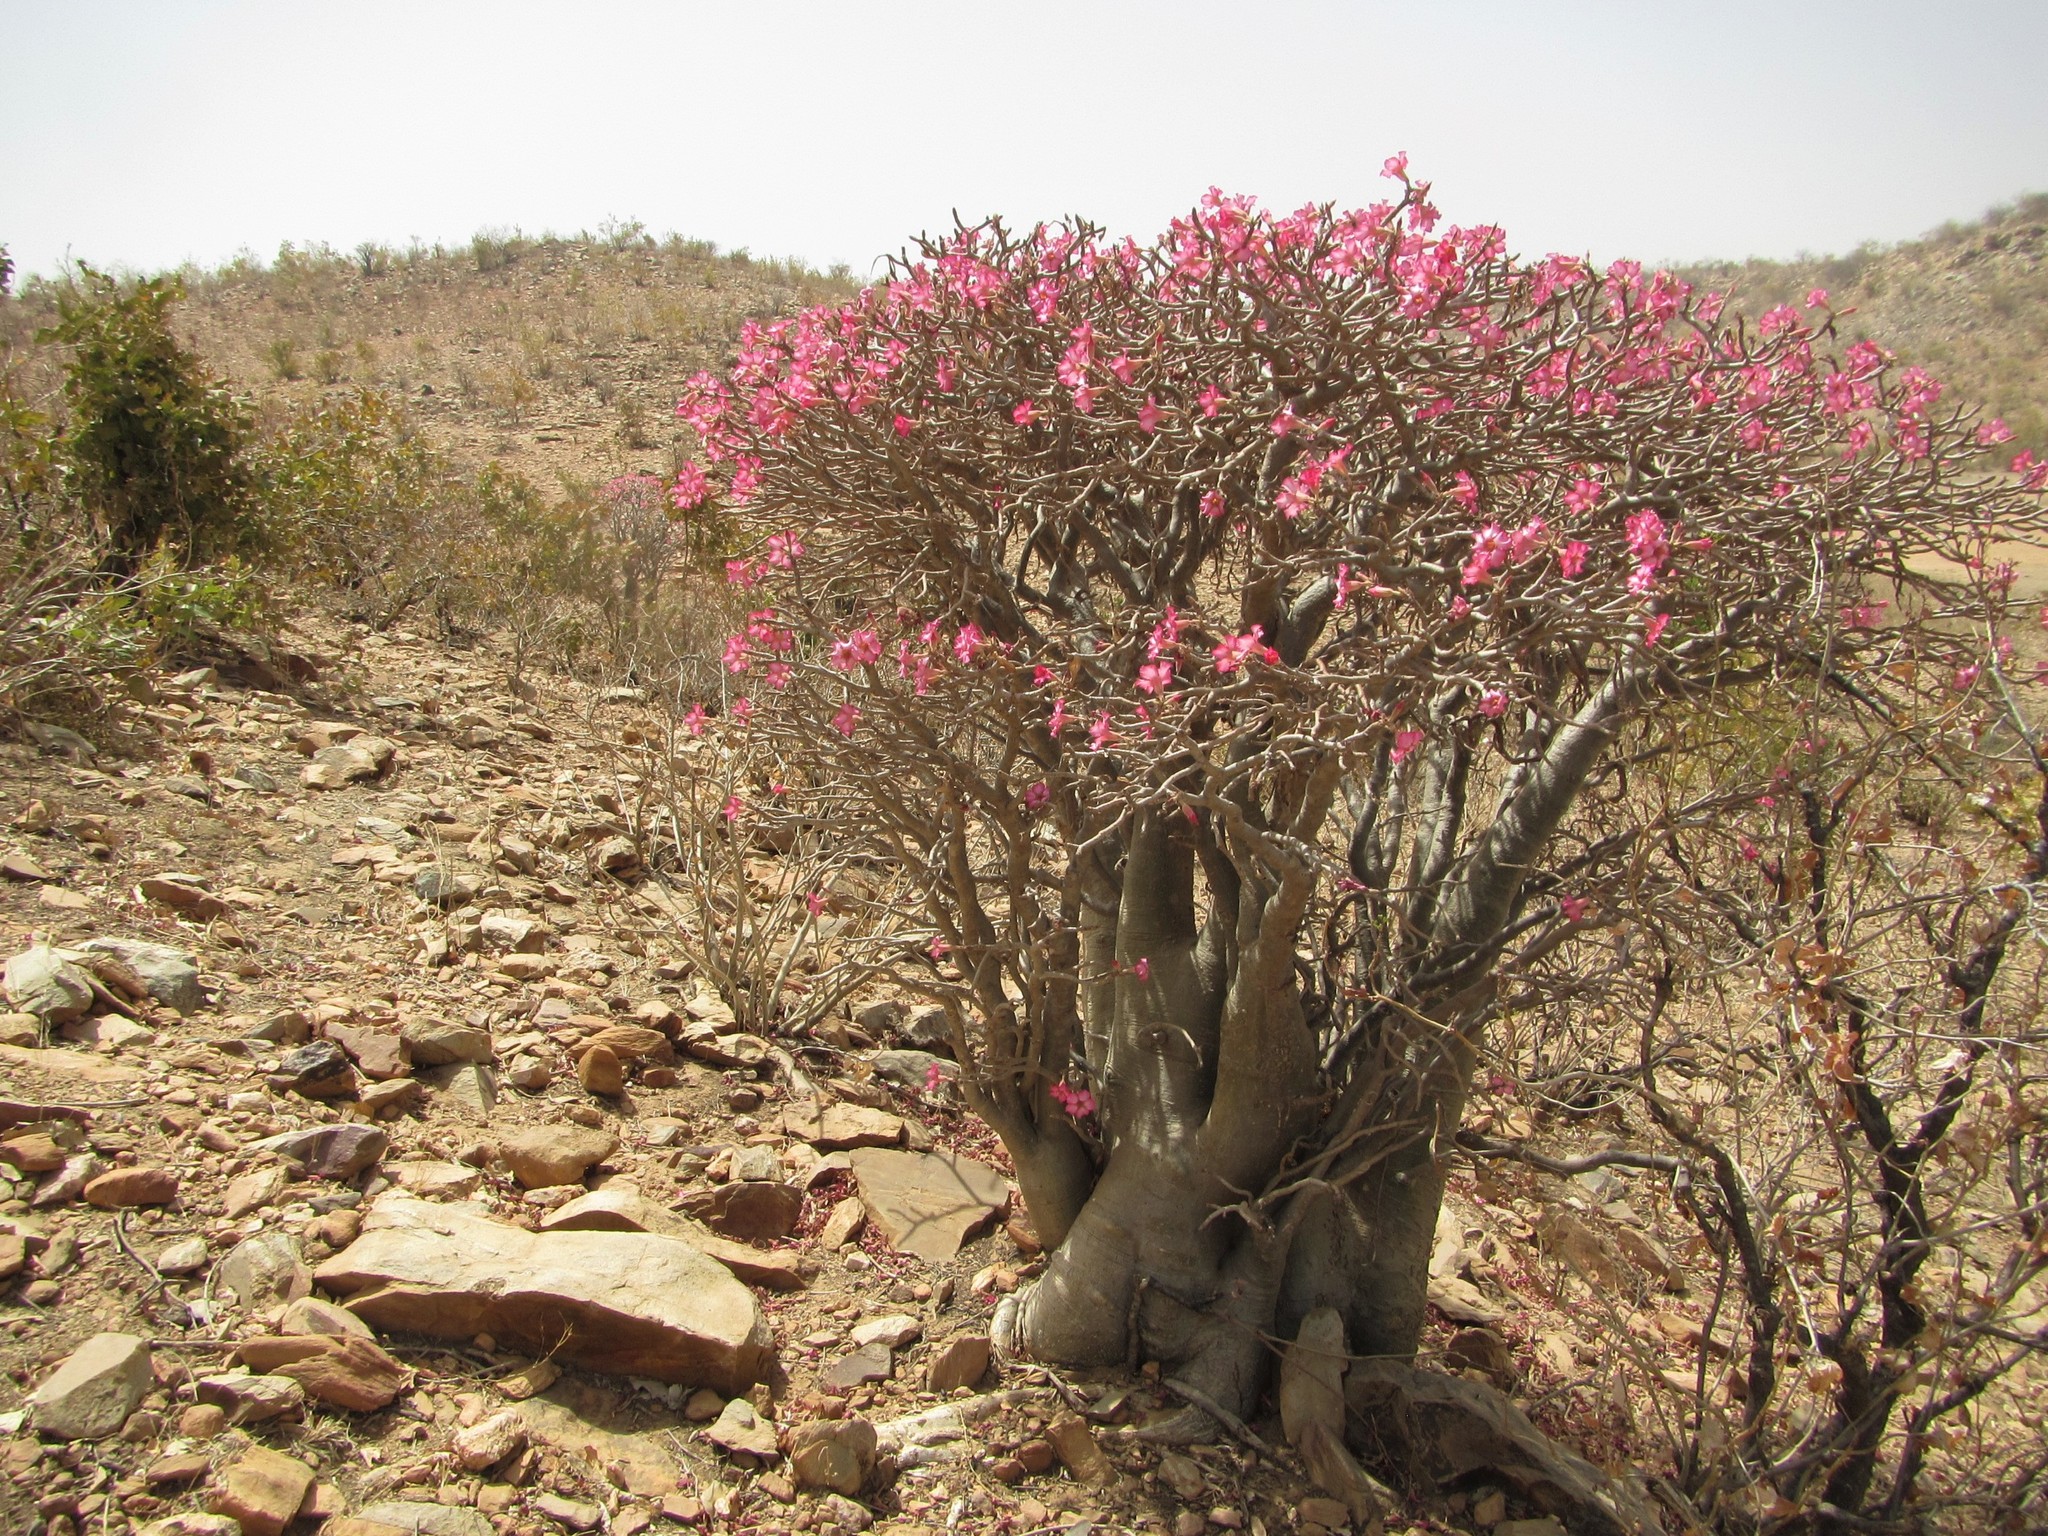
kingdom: Plantae
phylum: Tracheophyta
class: Magnoliopsida
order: Gentianales
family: Apocynaceae
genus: Adenium
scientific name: Adenium obesum
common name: Desert-rose
